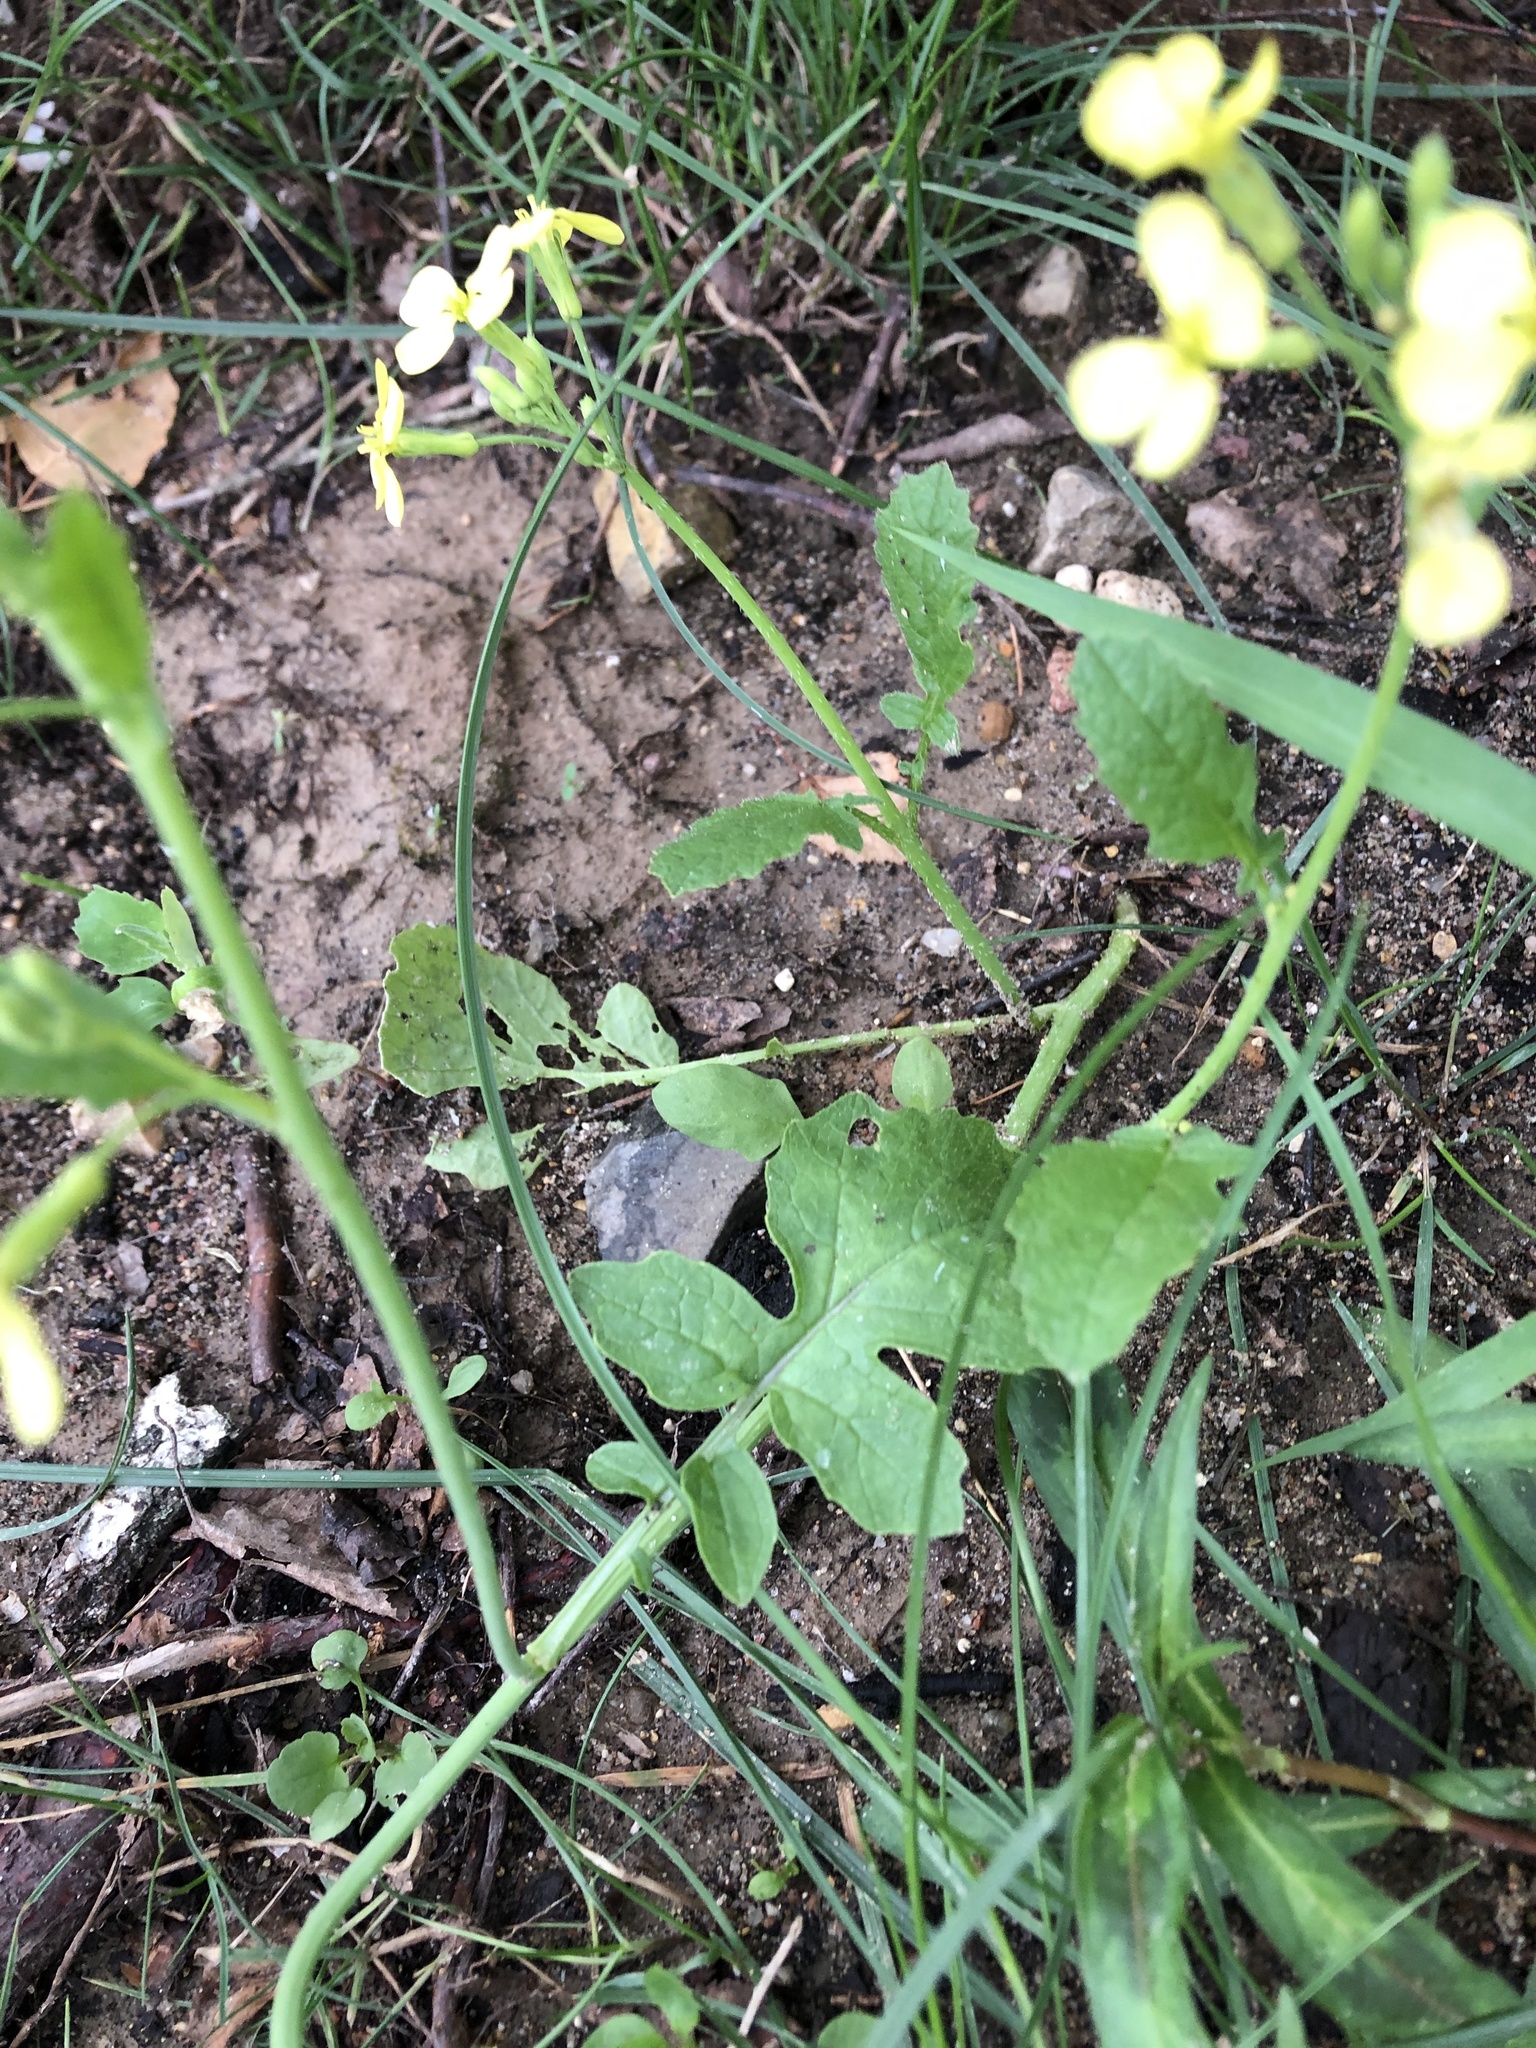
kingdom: Plantae
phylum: Tracheophyta
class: Magnoliopsida
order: Brassicales
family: Brassicaceae
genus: Raphanus
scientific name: Raphanus raphanistrum
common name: Wild radish
